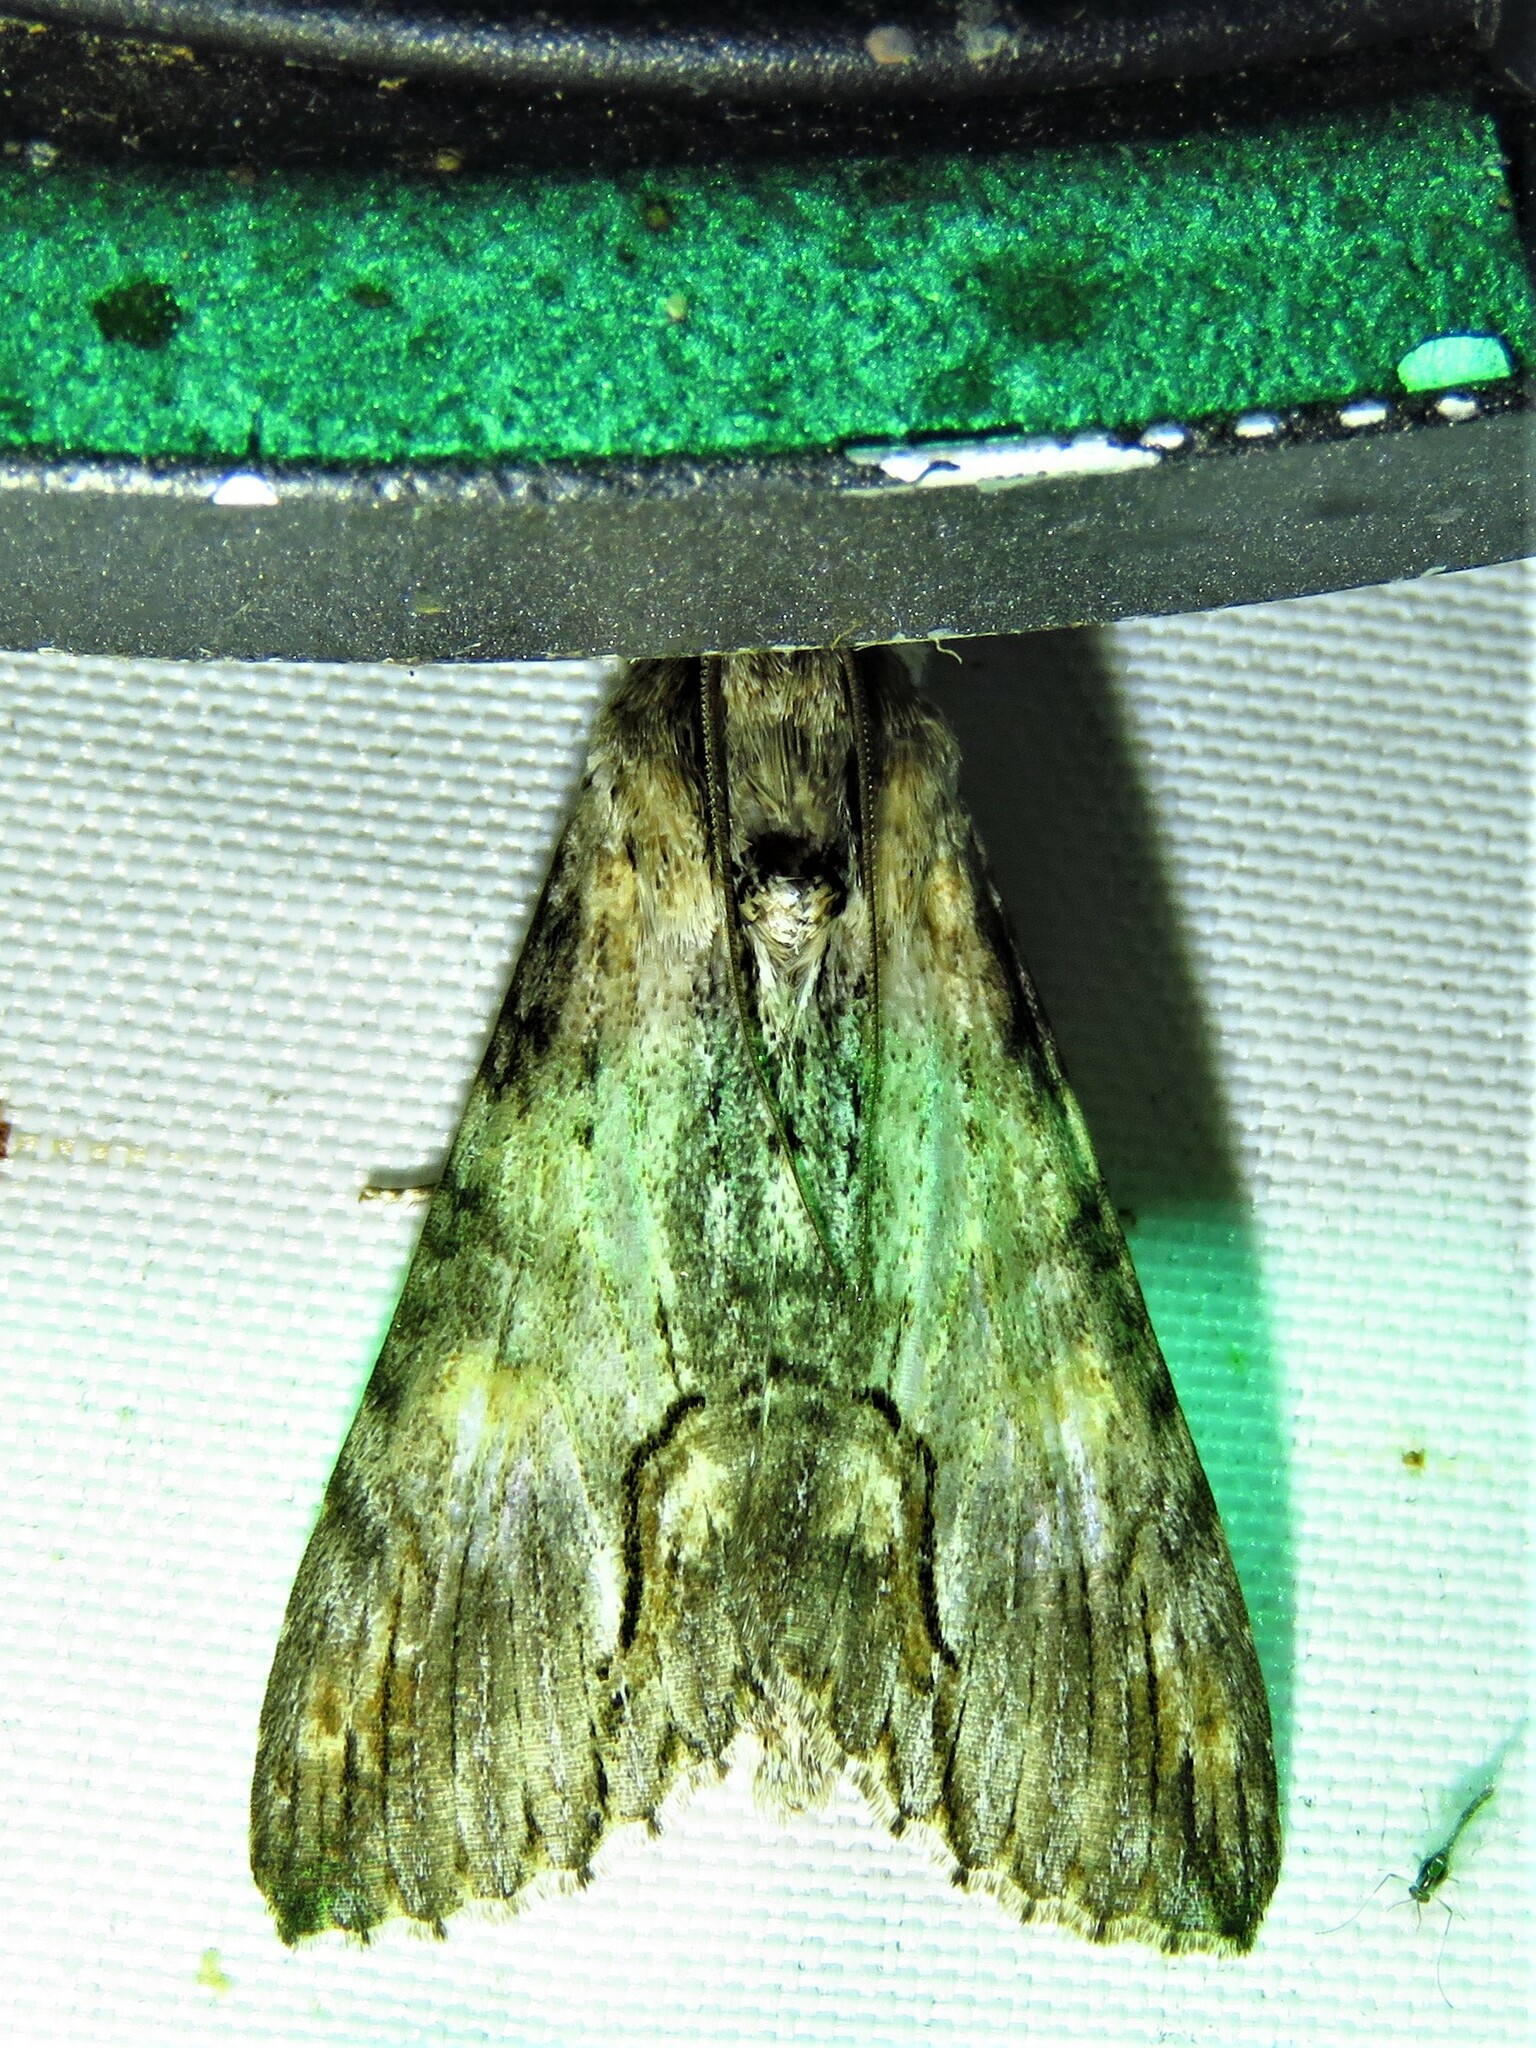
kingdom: Animalia
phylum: Arthropoda
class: Insecta
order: Lepidoptera
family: Erebidae
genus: Melipotis
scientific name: Melipotis acontioides
